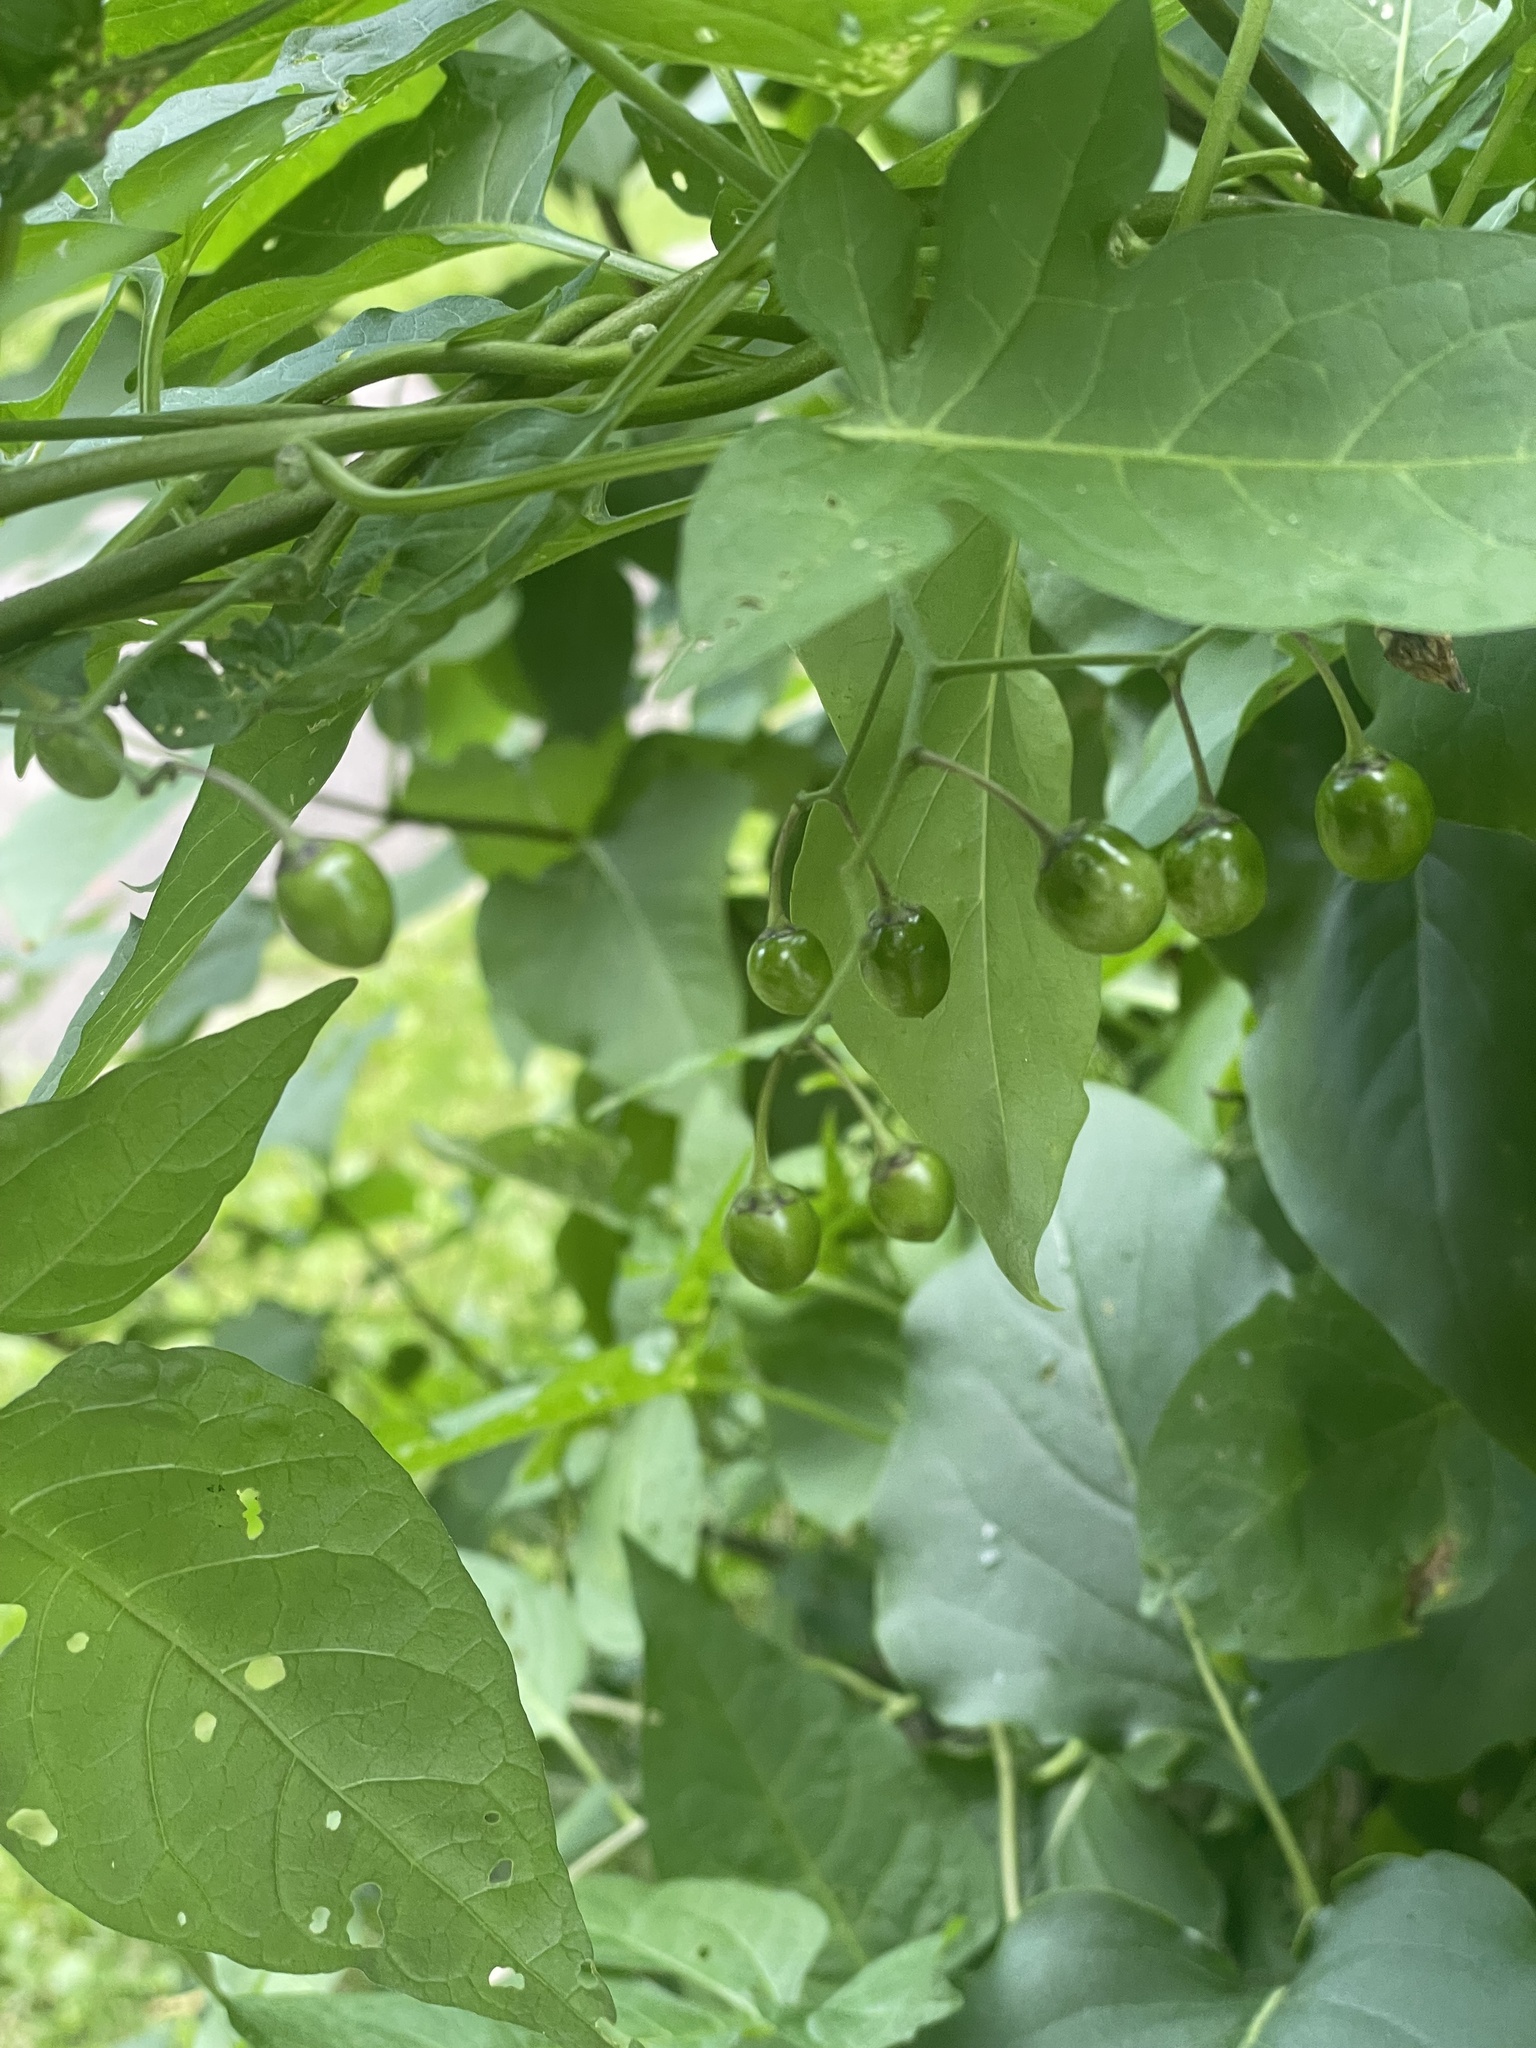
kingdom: Plantae
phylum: Tracheophyta
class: Magnoliopsida
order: Solanales
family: Solanaceae
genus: Solanum
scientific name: Solanum dulcamara
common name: Climbing nightshade
